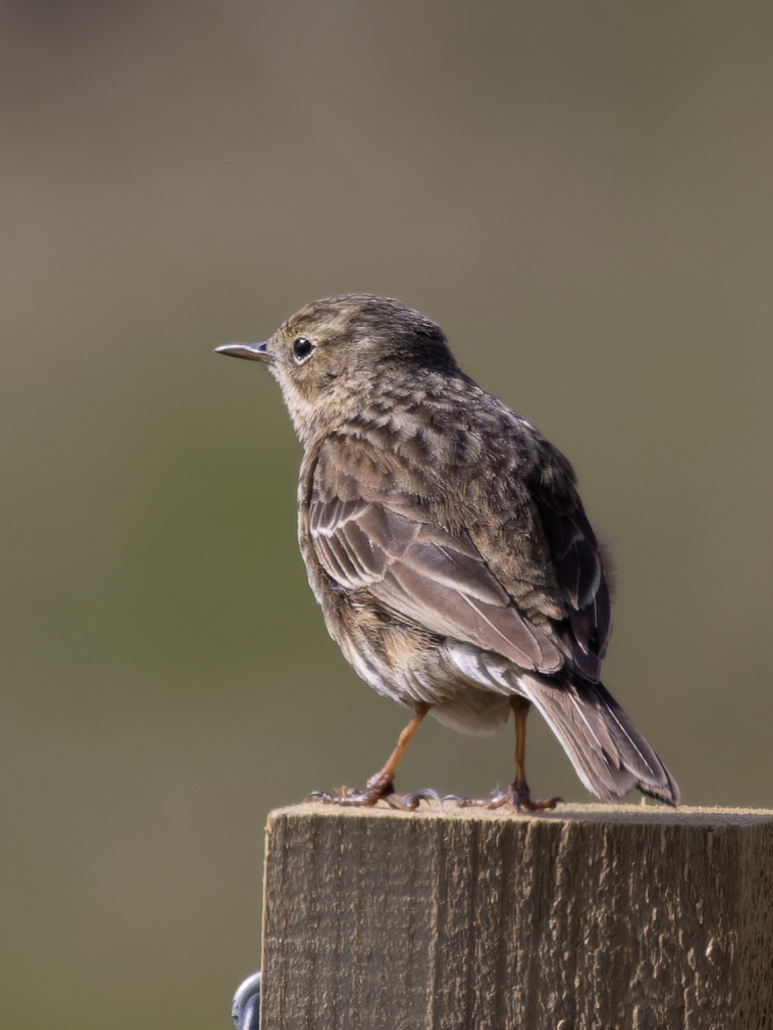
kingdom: Animalia
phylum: Chordata
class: Aves
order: Passeriformes
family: Motacillidae
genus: Anthus
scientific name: Anthus pratensis
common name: Meadow pipit
